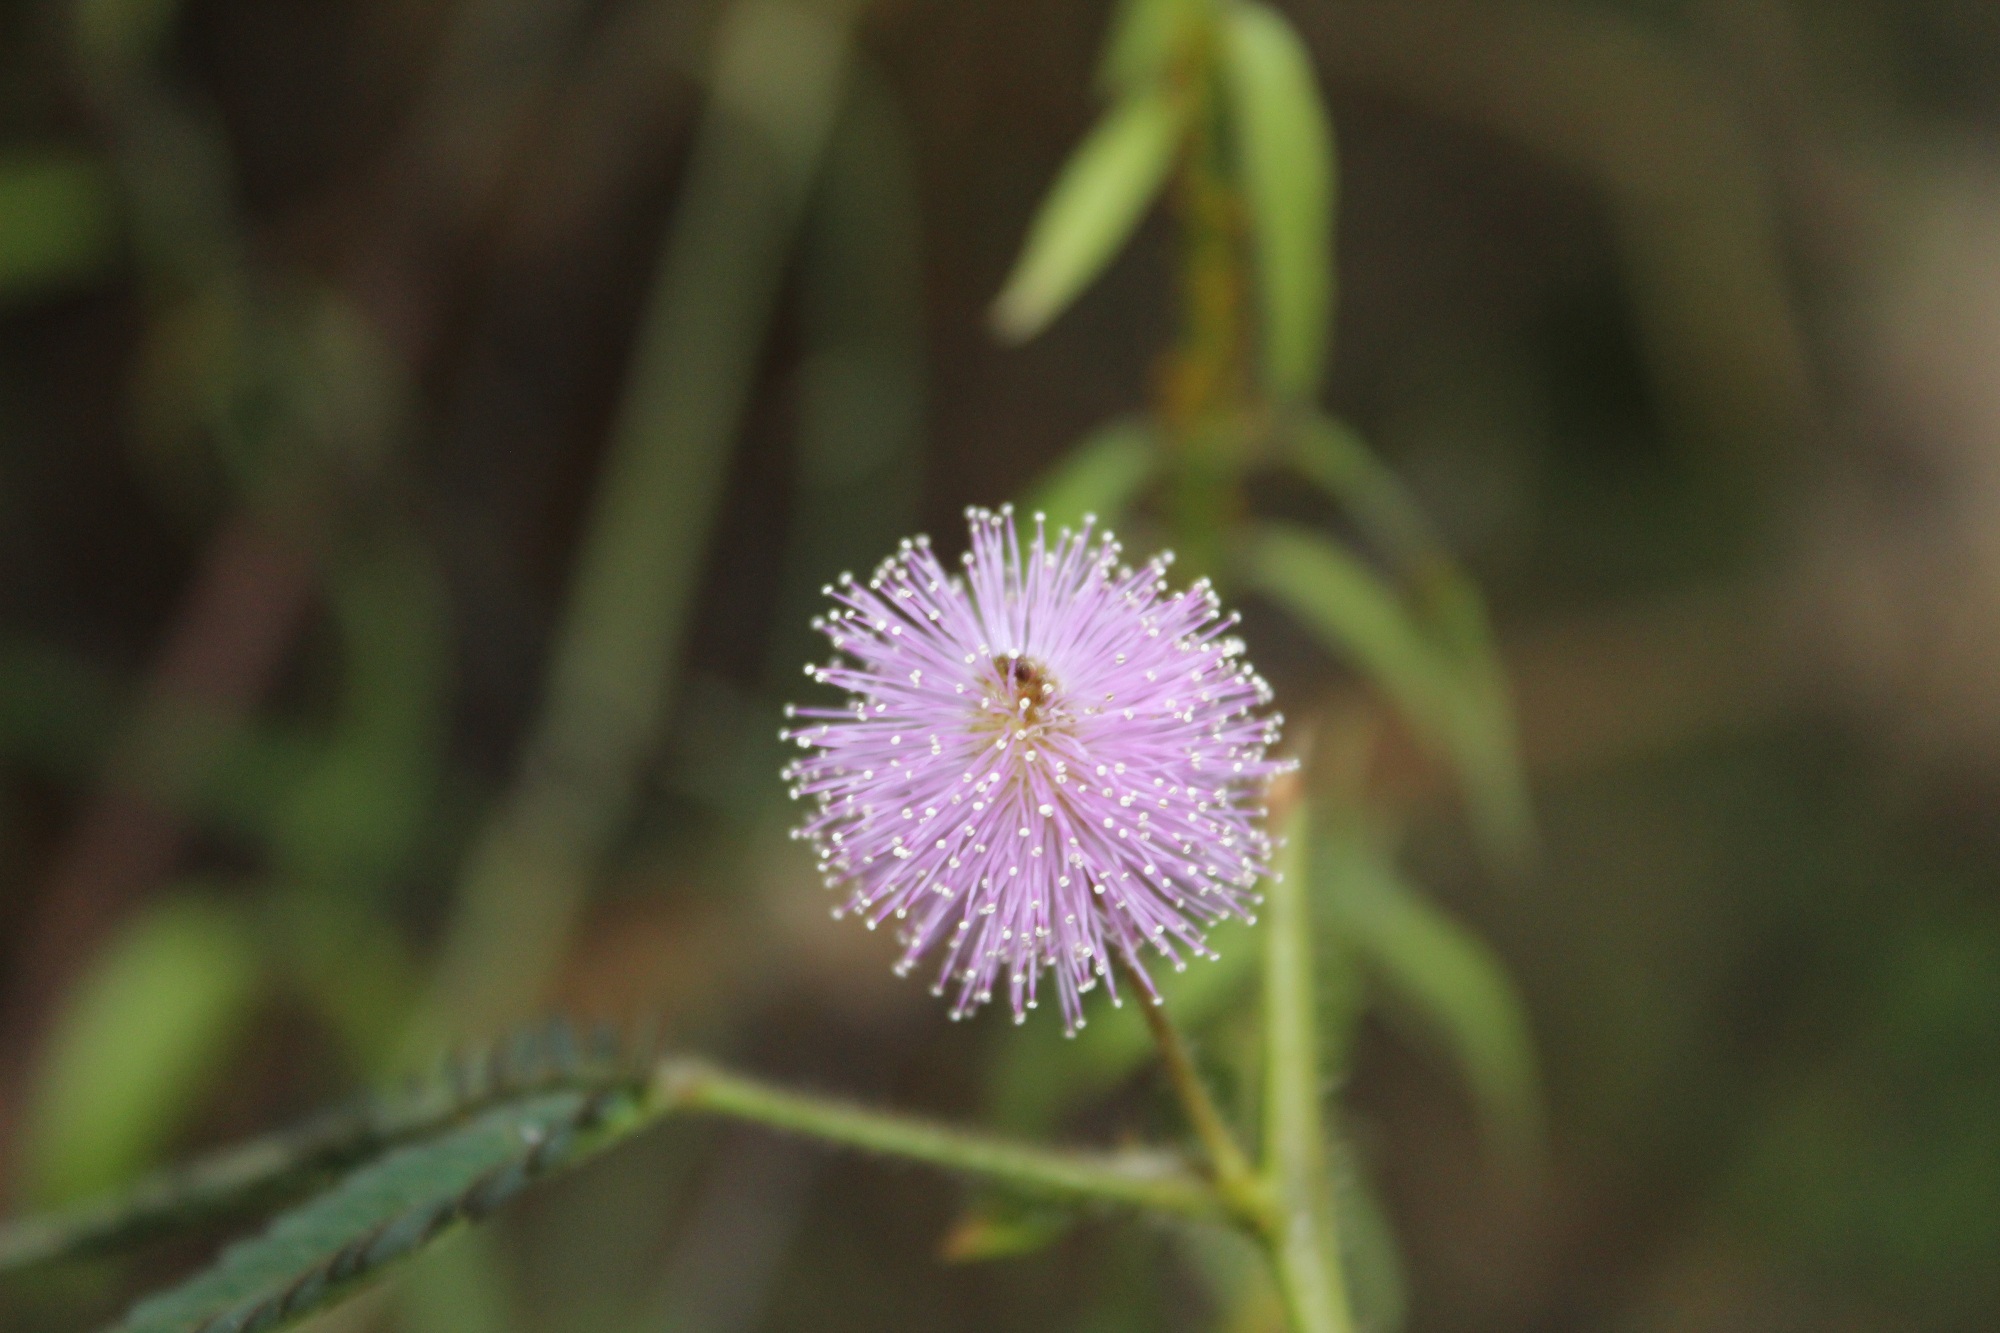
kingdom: Plantae
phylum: Tracheophyta
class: Magnoliopsida
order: Fabales
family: Fabaceae
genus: Mimosa
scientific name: Mimosa pudica
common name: Sensitive plant
